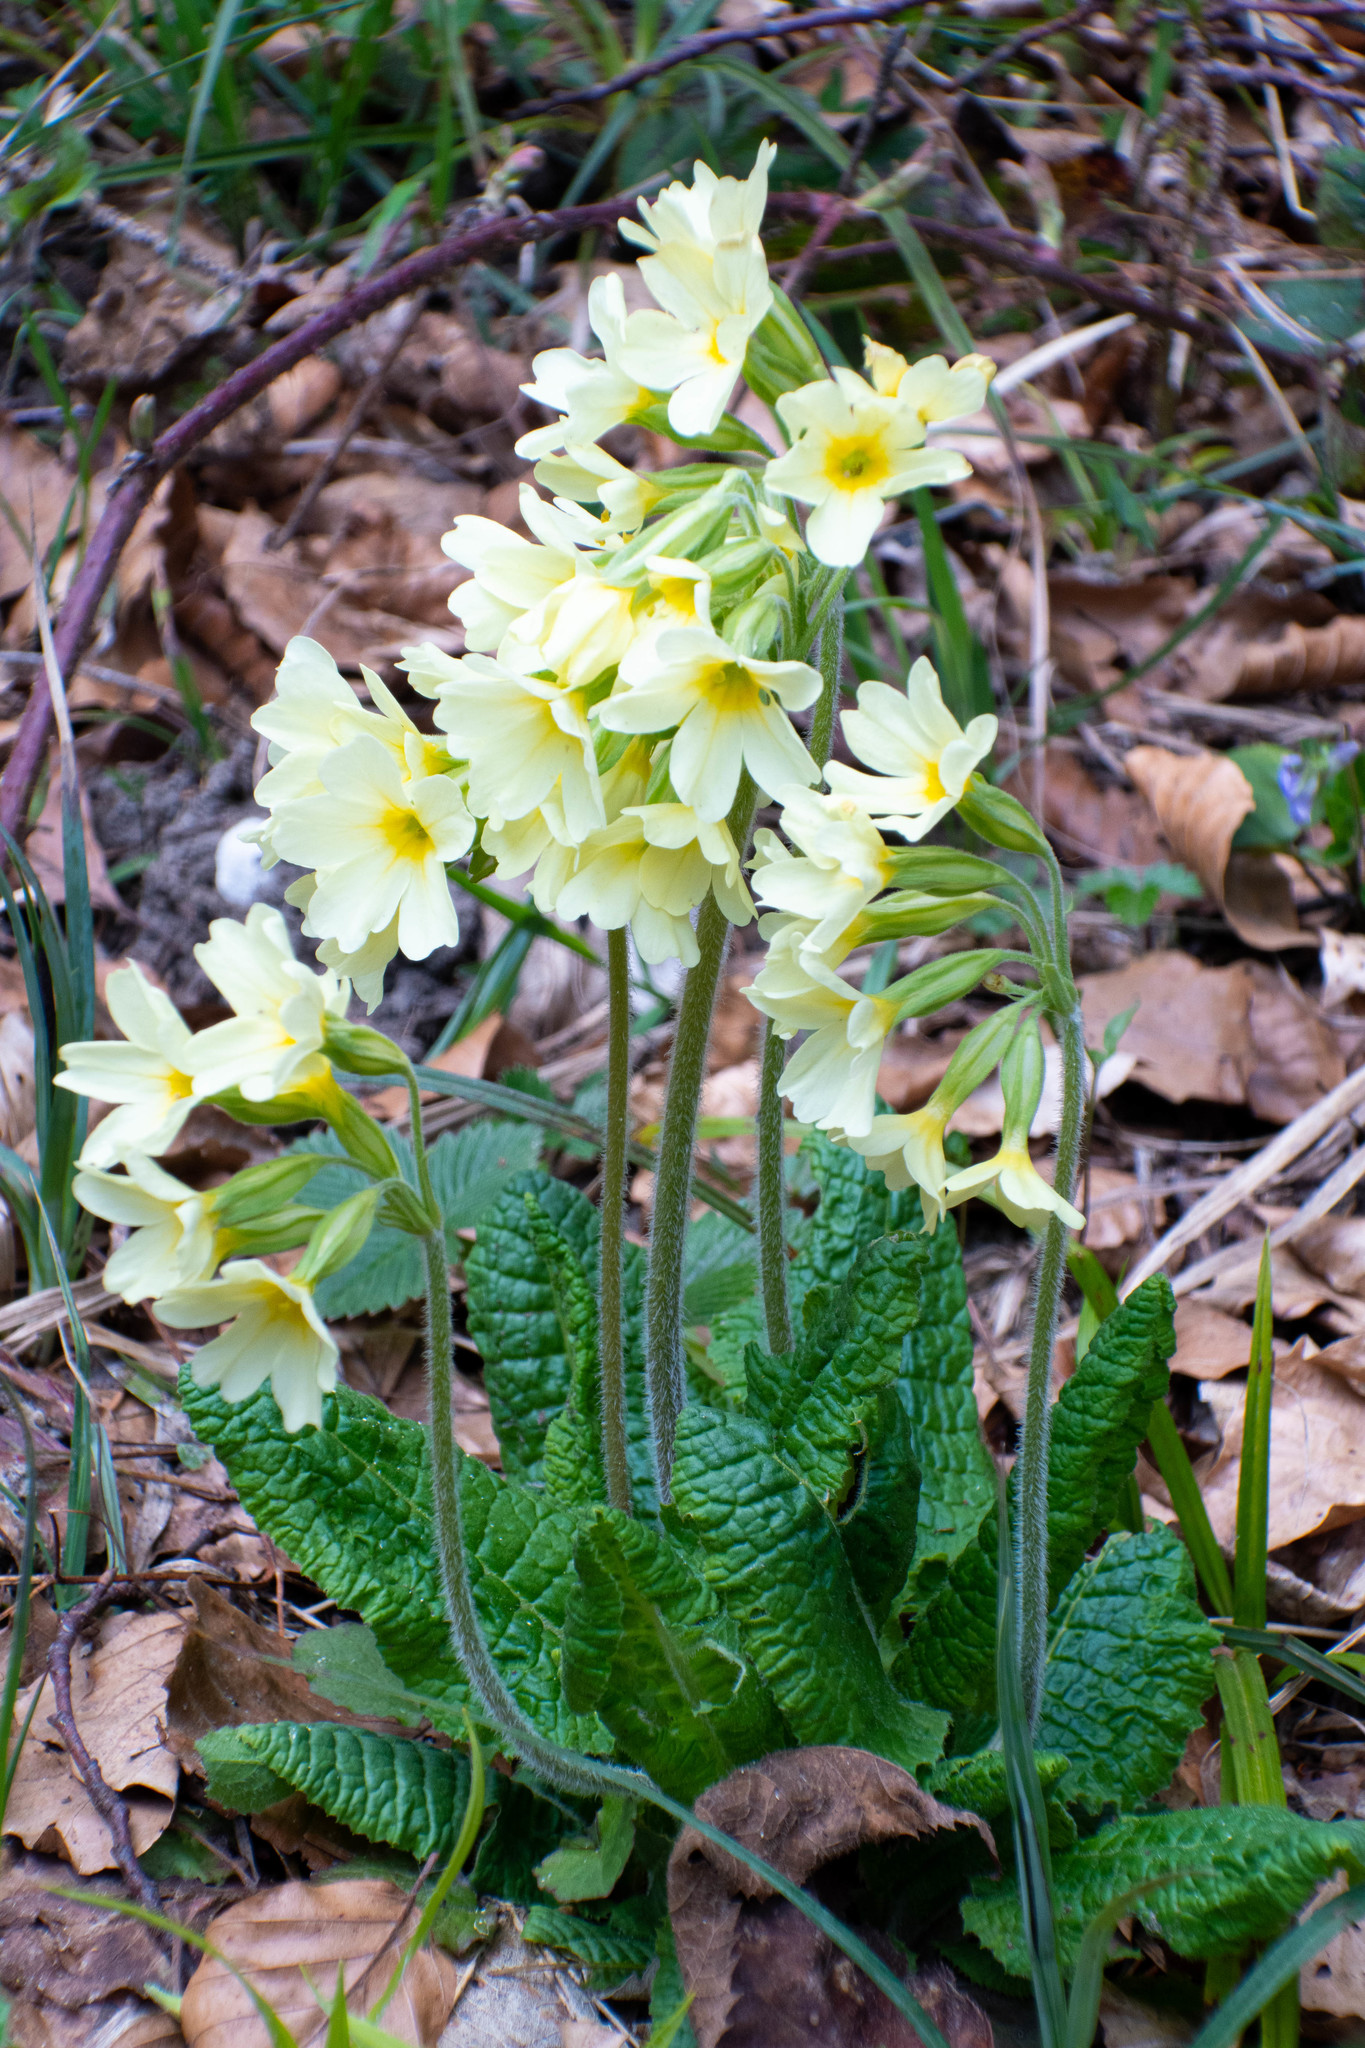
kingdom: Plantae
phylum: Tracheophyta
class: Magnoliopsida
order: Ericales
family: Primulaceae
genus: Primula
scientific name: Primula elatior
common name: Oxlip
